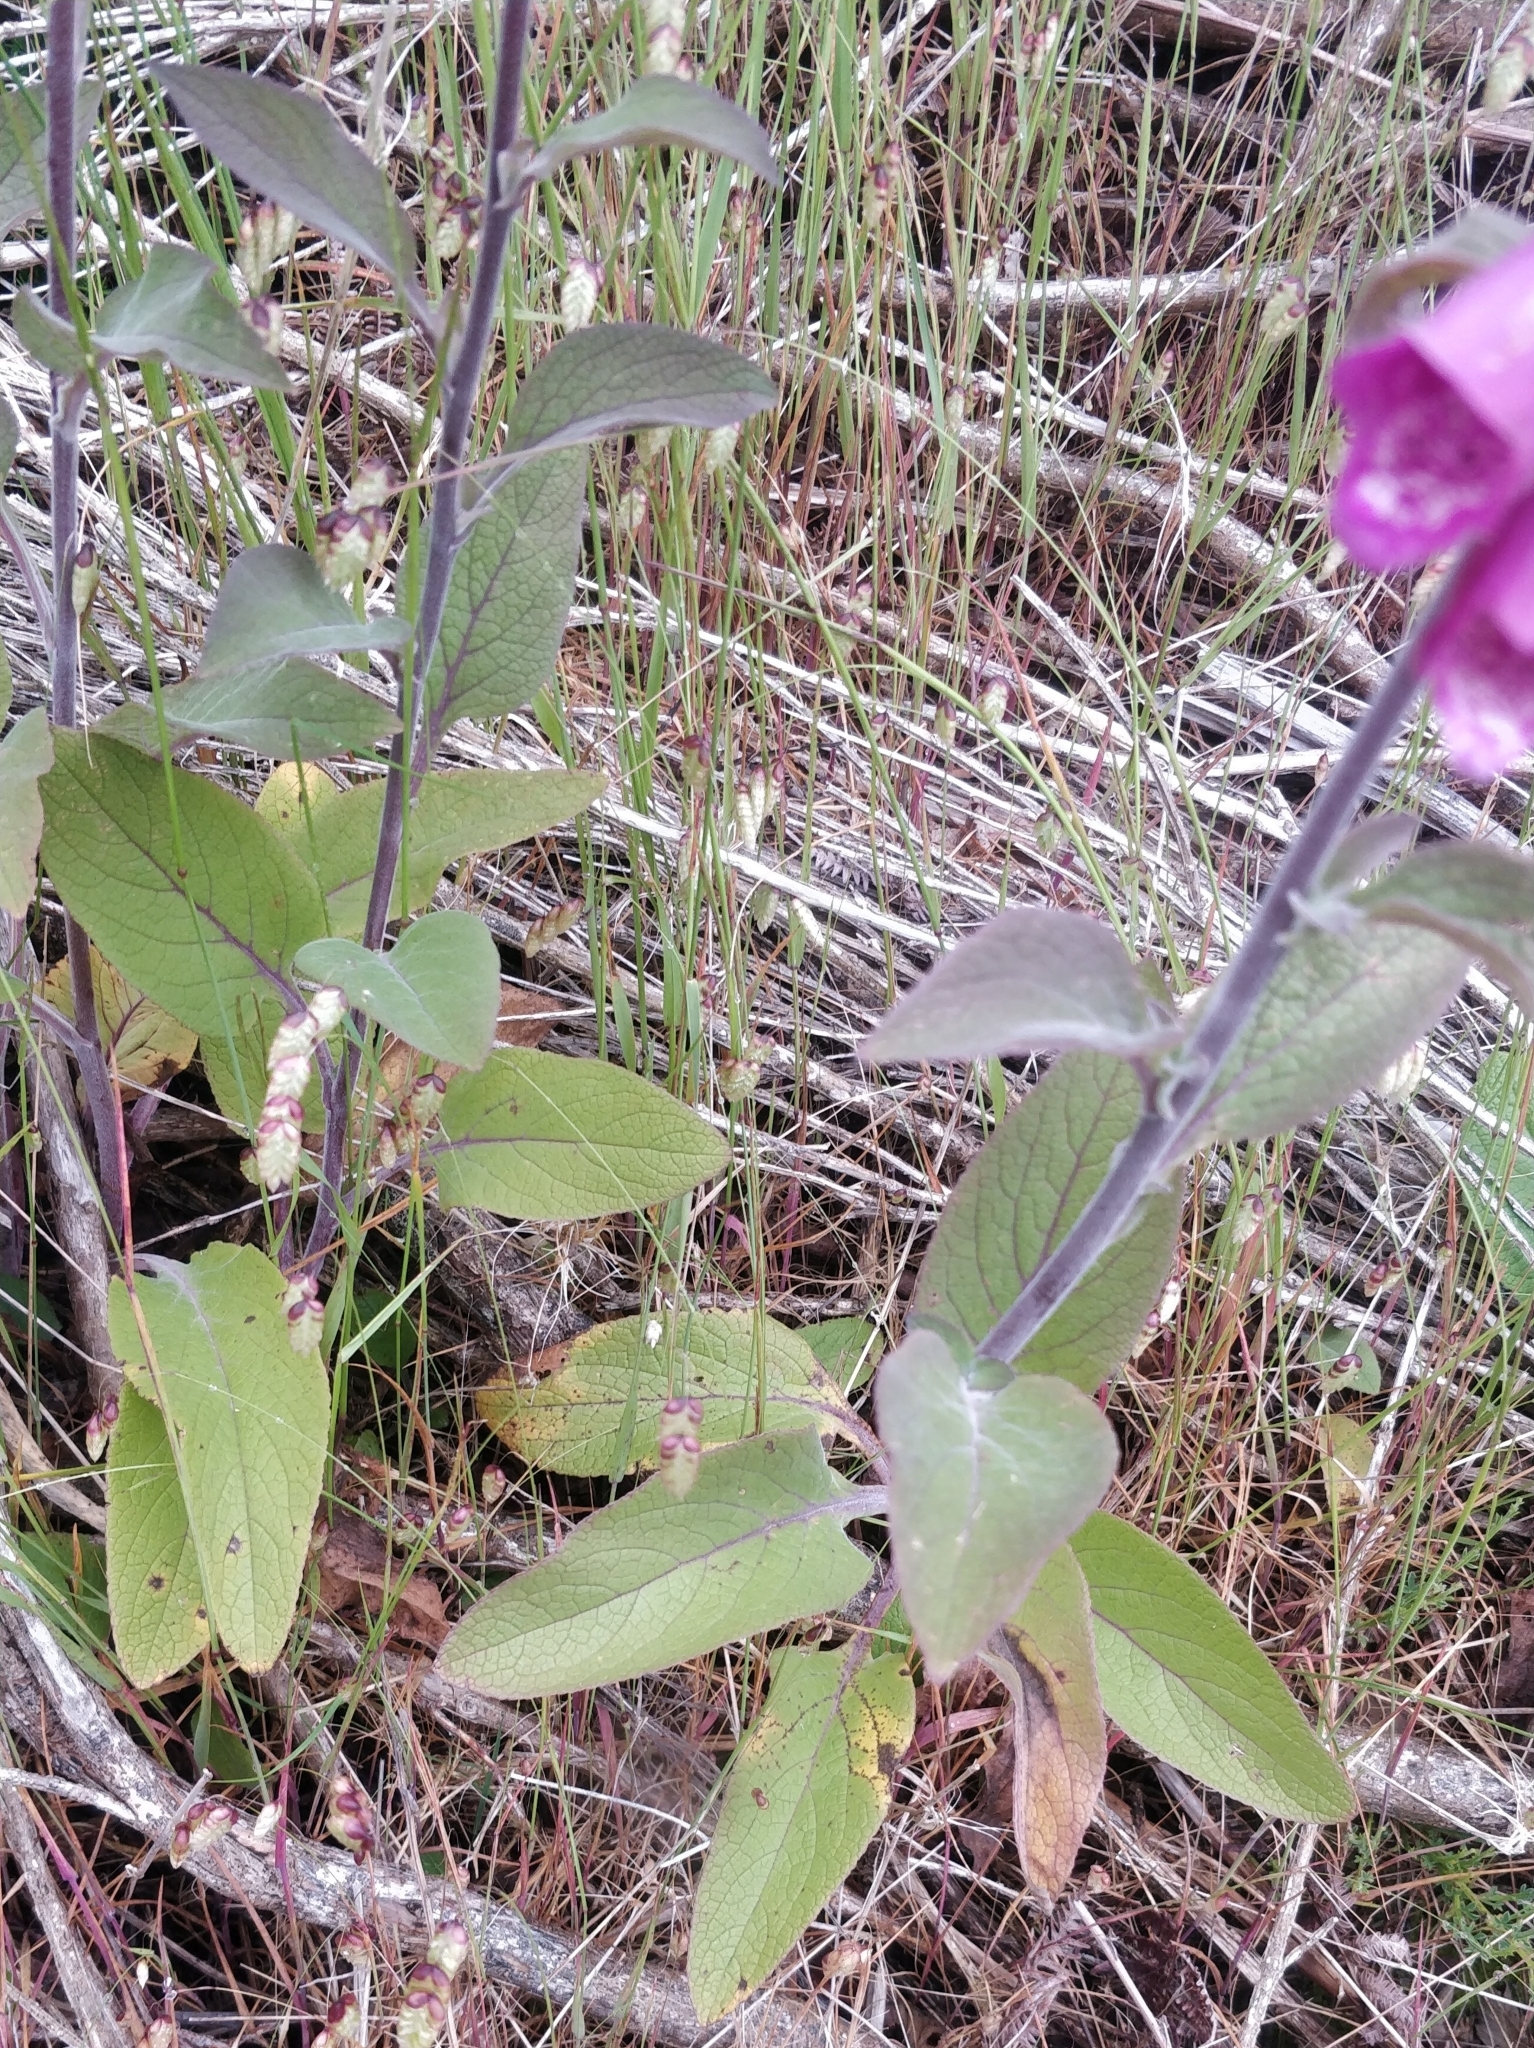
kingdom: Plantae
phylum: Tracheophyta
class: Magnoliopsida
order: Lamiales
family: Plantaginaceae
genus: Digitalis
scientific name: Digitalis purpurea
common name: Foxglove
